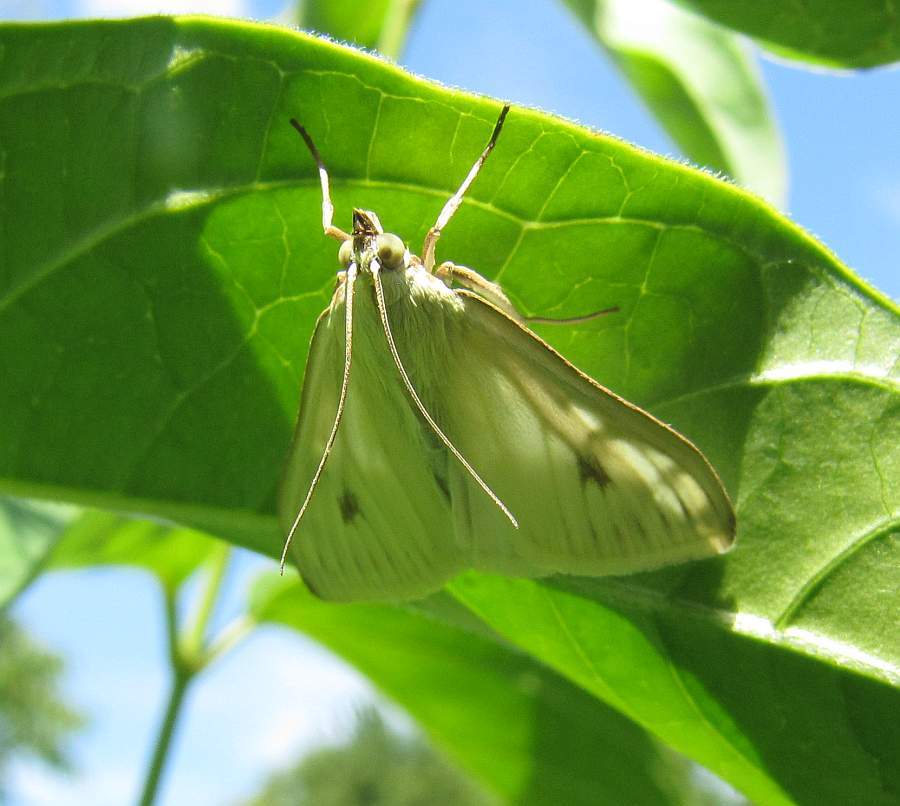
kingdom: Animalia
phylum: Arthropoda
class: Insecta
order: Lepidoptera
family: Crambidae
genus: Sitochroa
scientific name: Sitochroa palealis
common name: Greenish-yellow sitochroa moth
